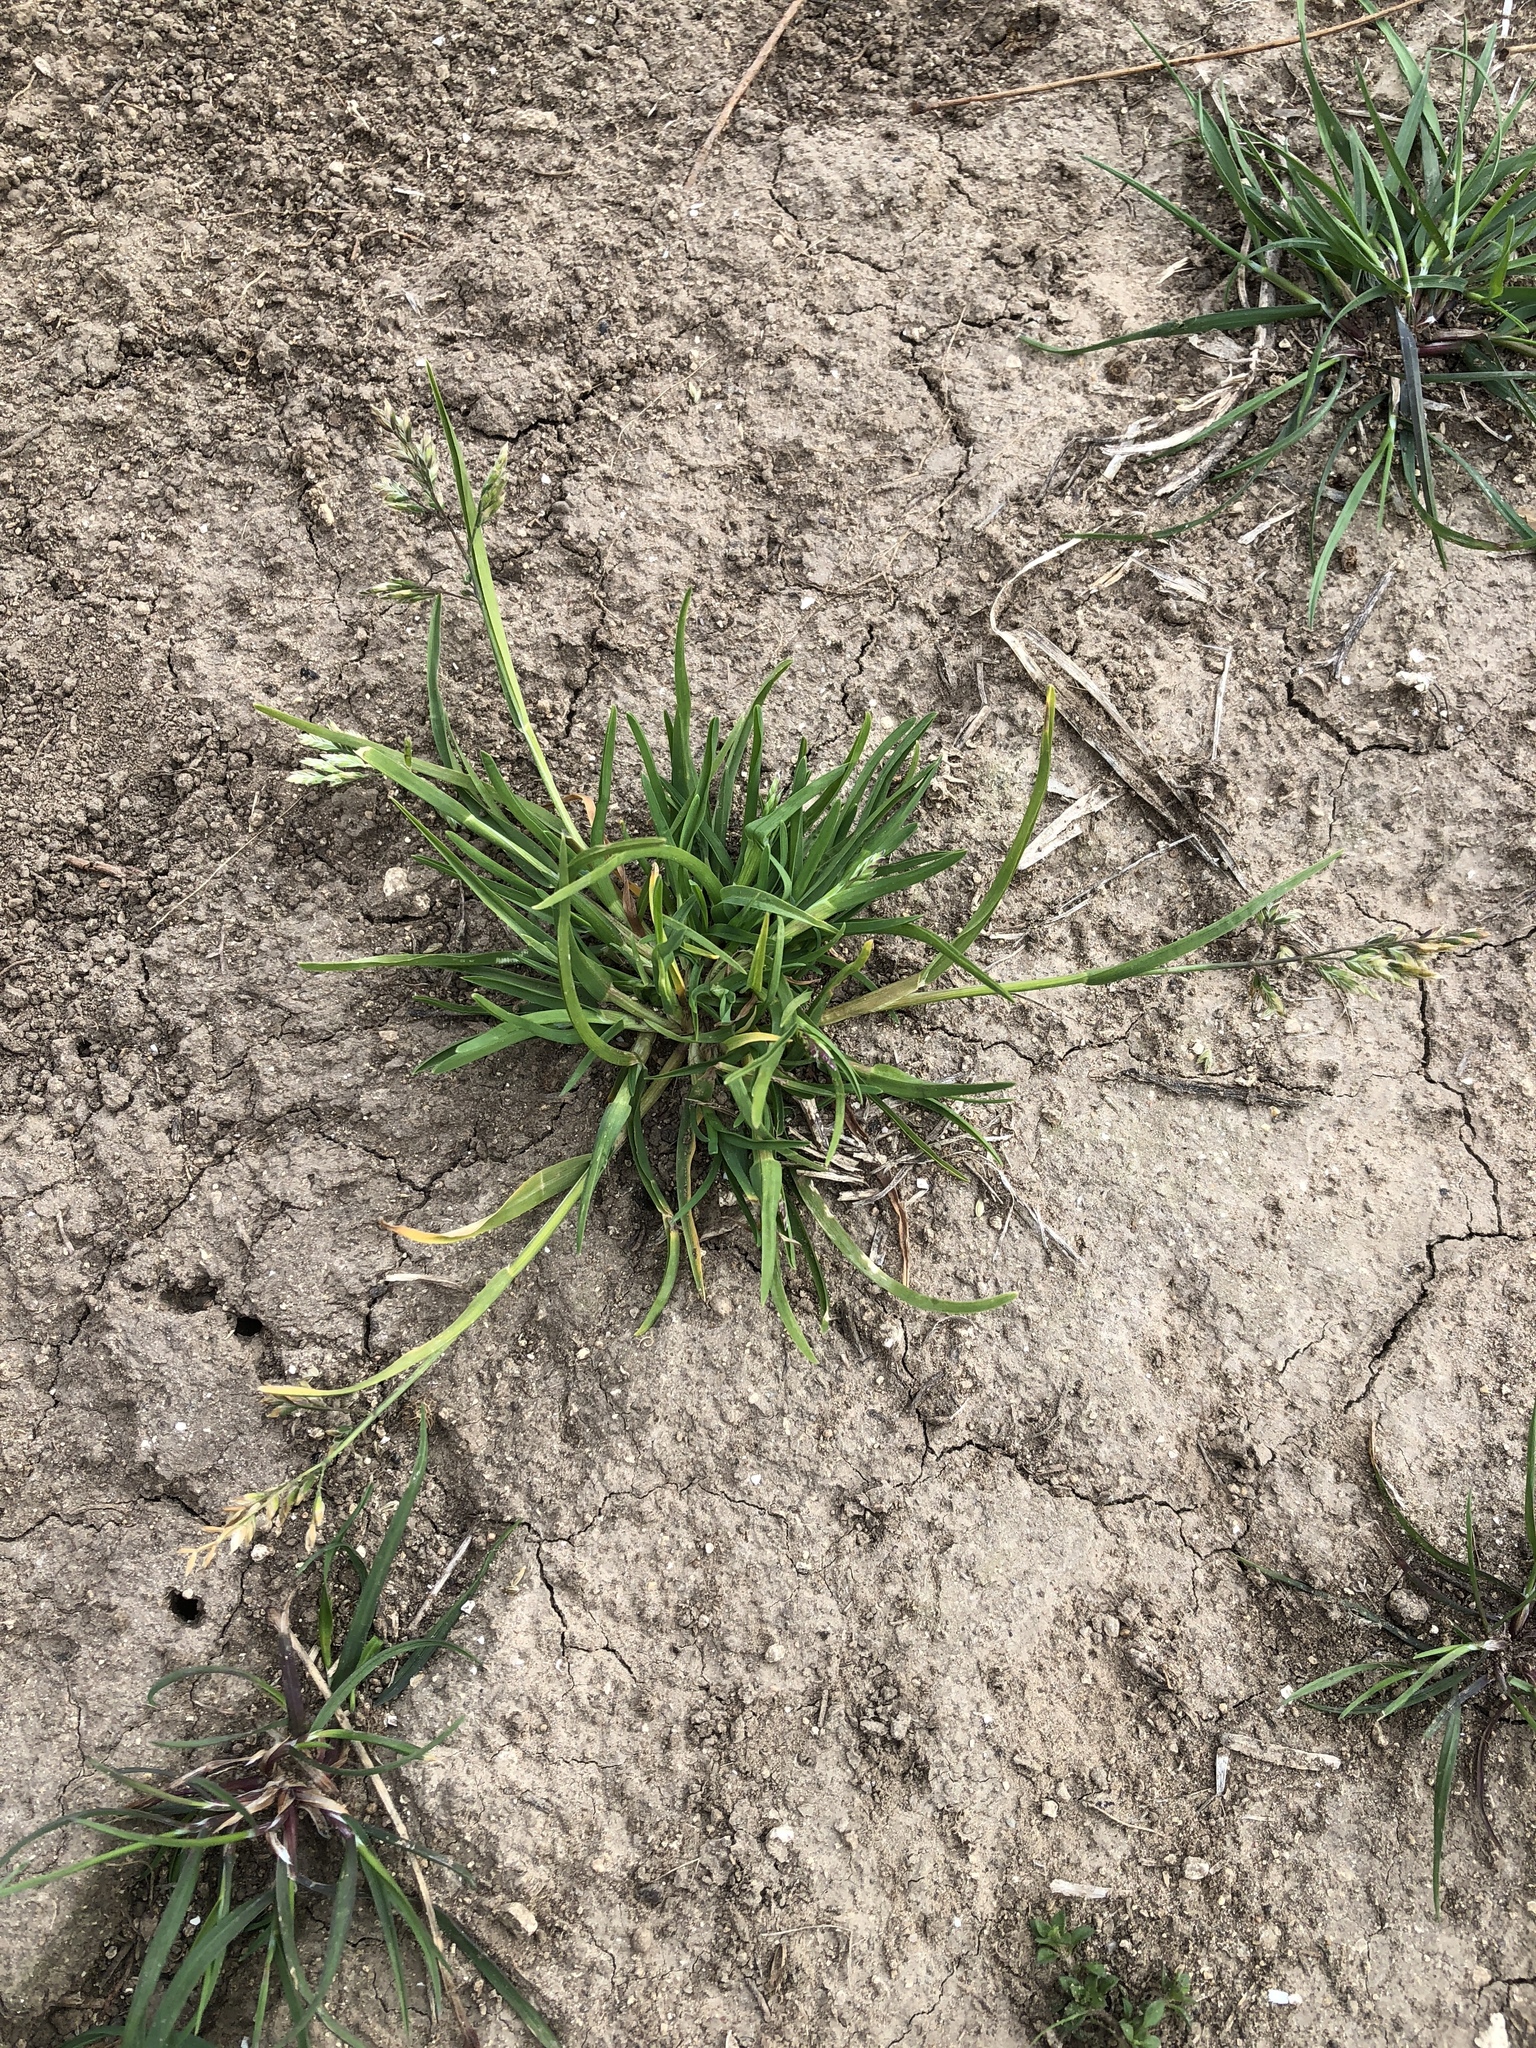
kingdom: Plantae
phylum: Tracheophyta
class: Liliopsida
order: Poales
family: Poaceae
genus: Poa
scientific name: Poa annua
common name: Annual bluegrass
